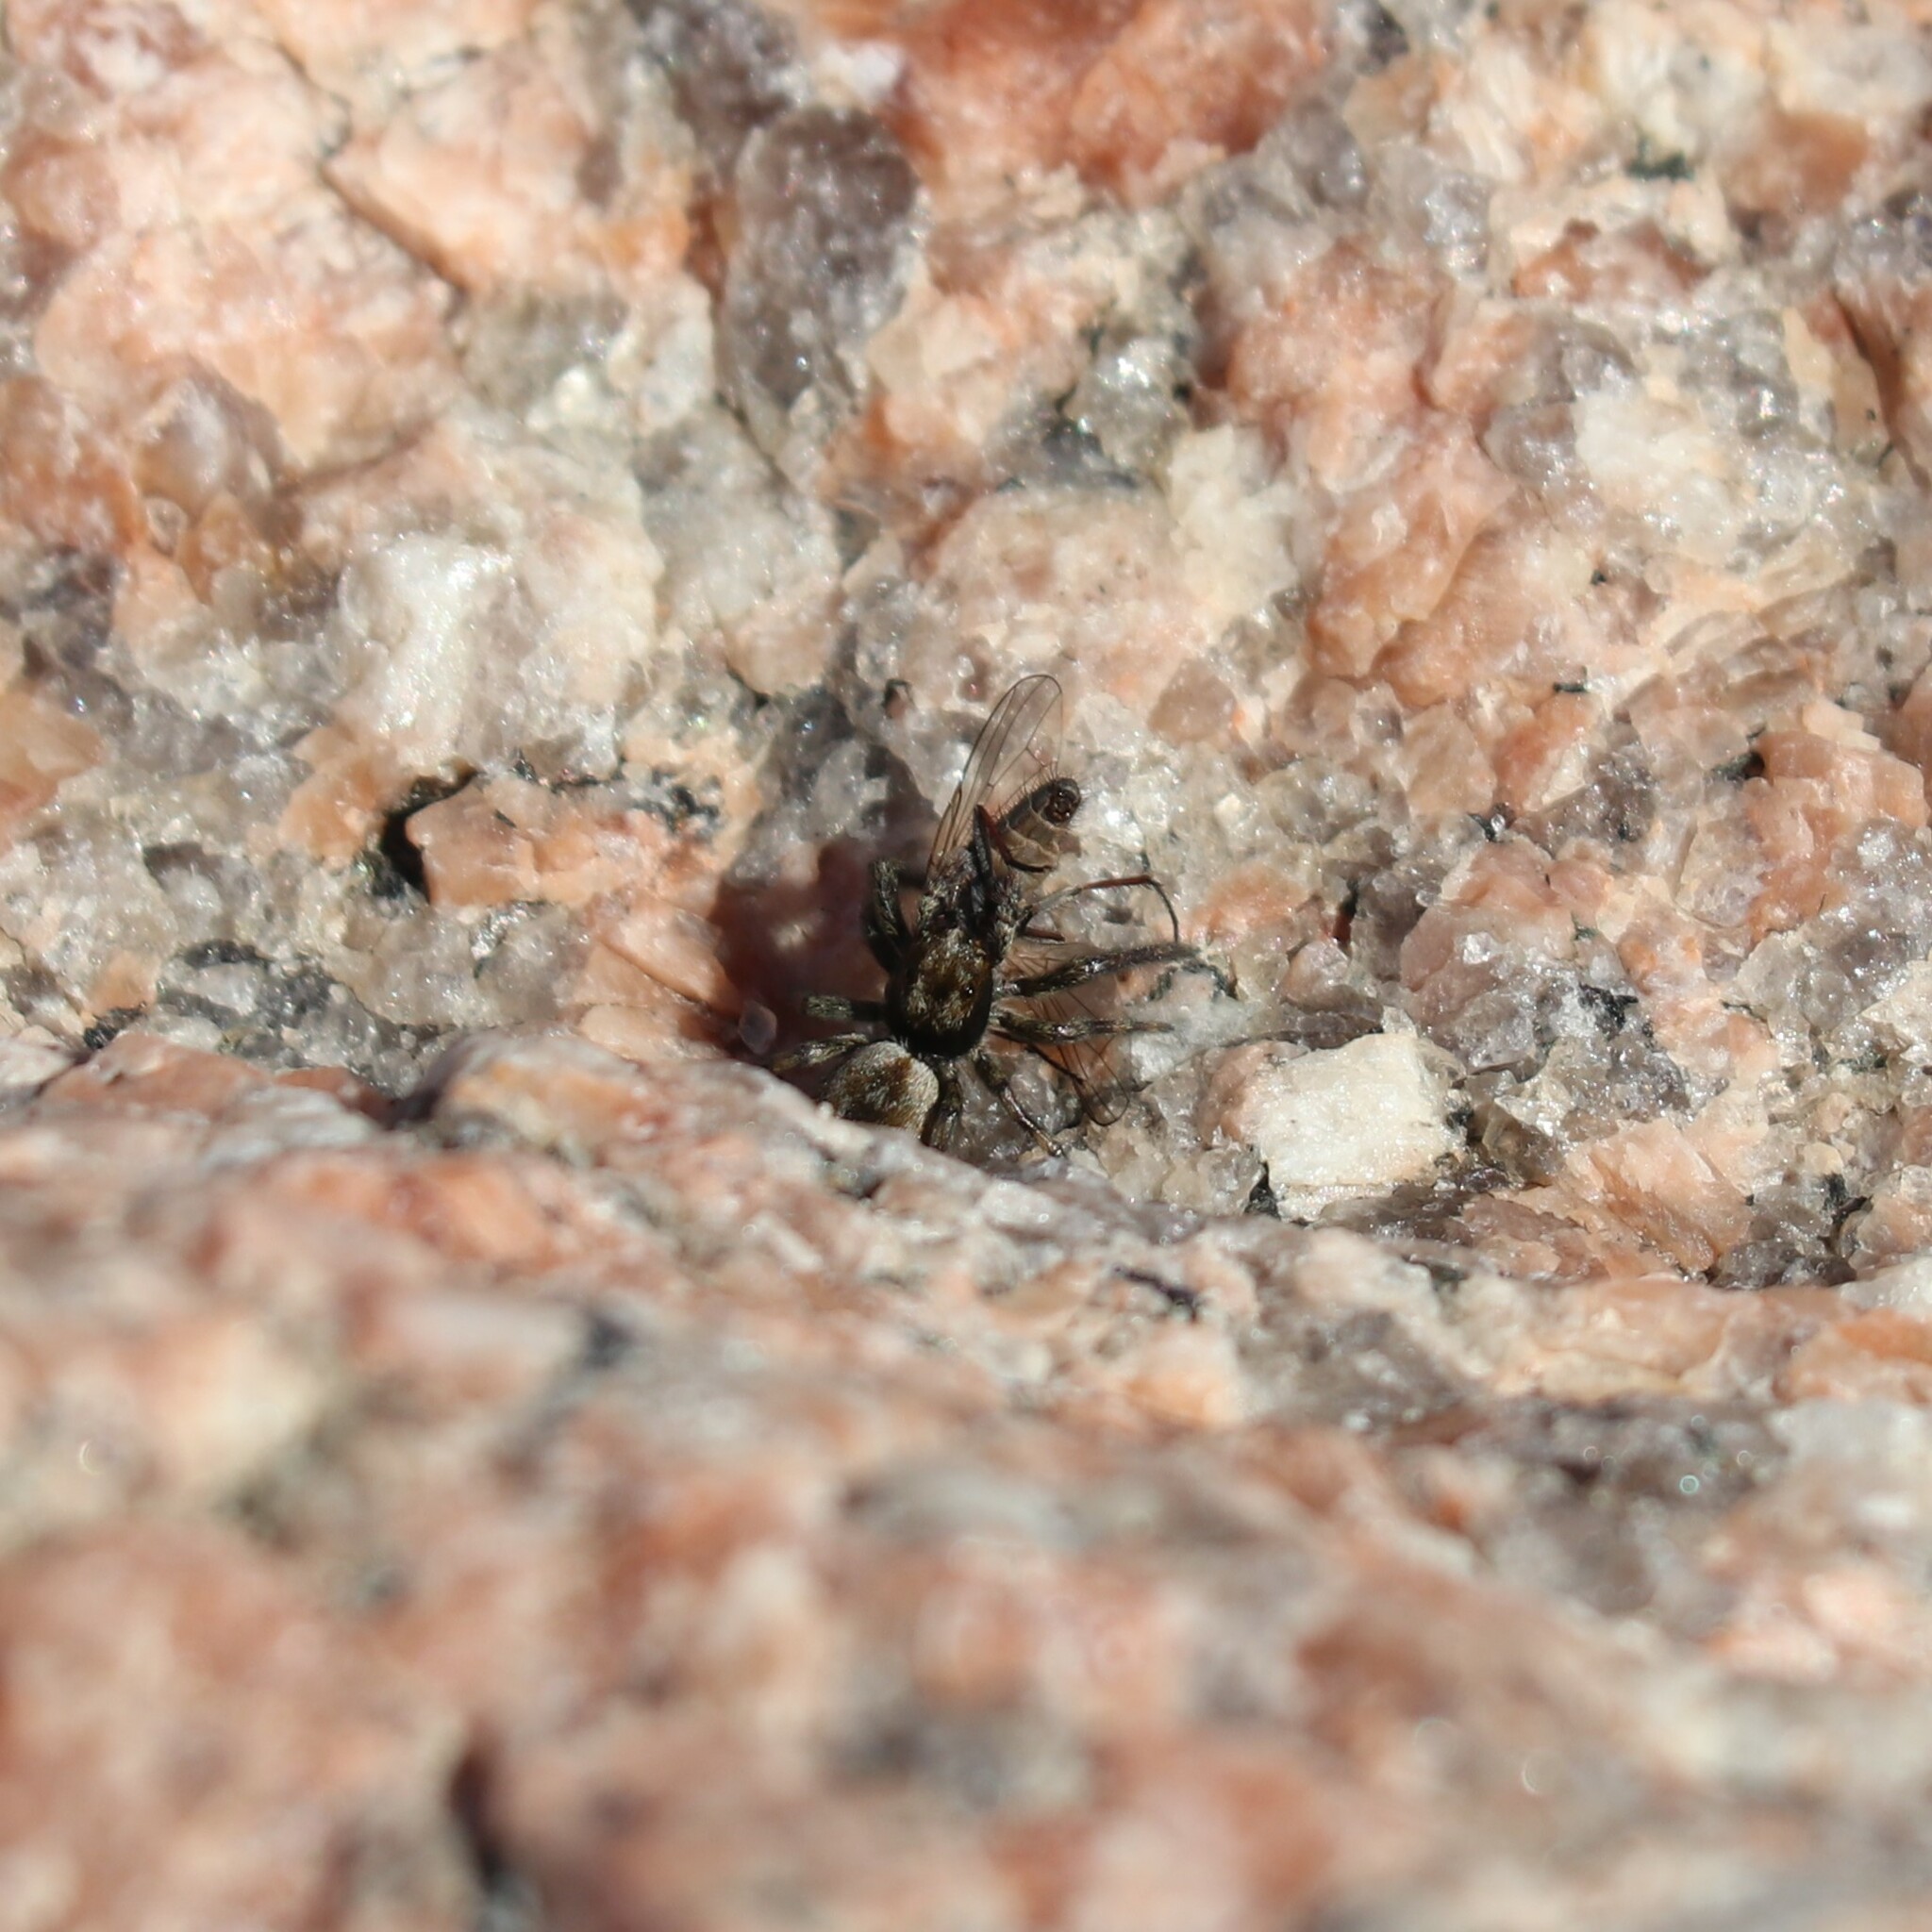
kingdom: Animalia
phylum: Arthropoda
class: Arachnida
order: Araneae
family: Salticidae
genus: Hakka
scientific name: Hakka himeshimensis
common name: Jumping spider
